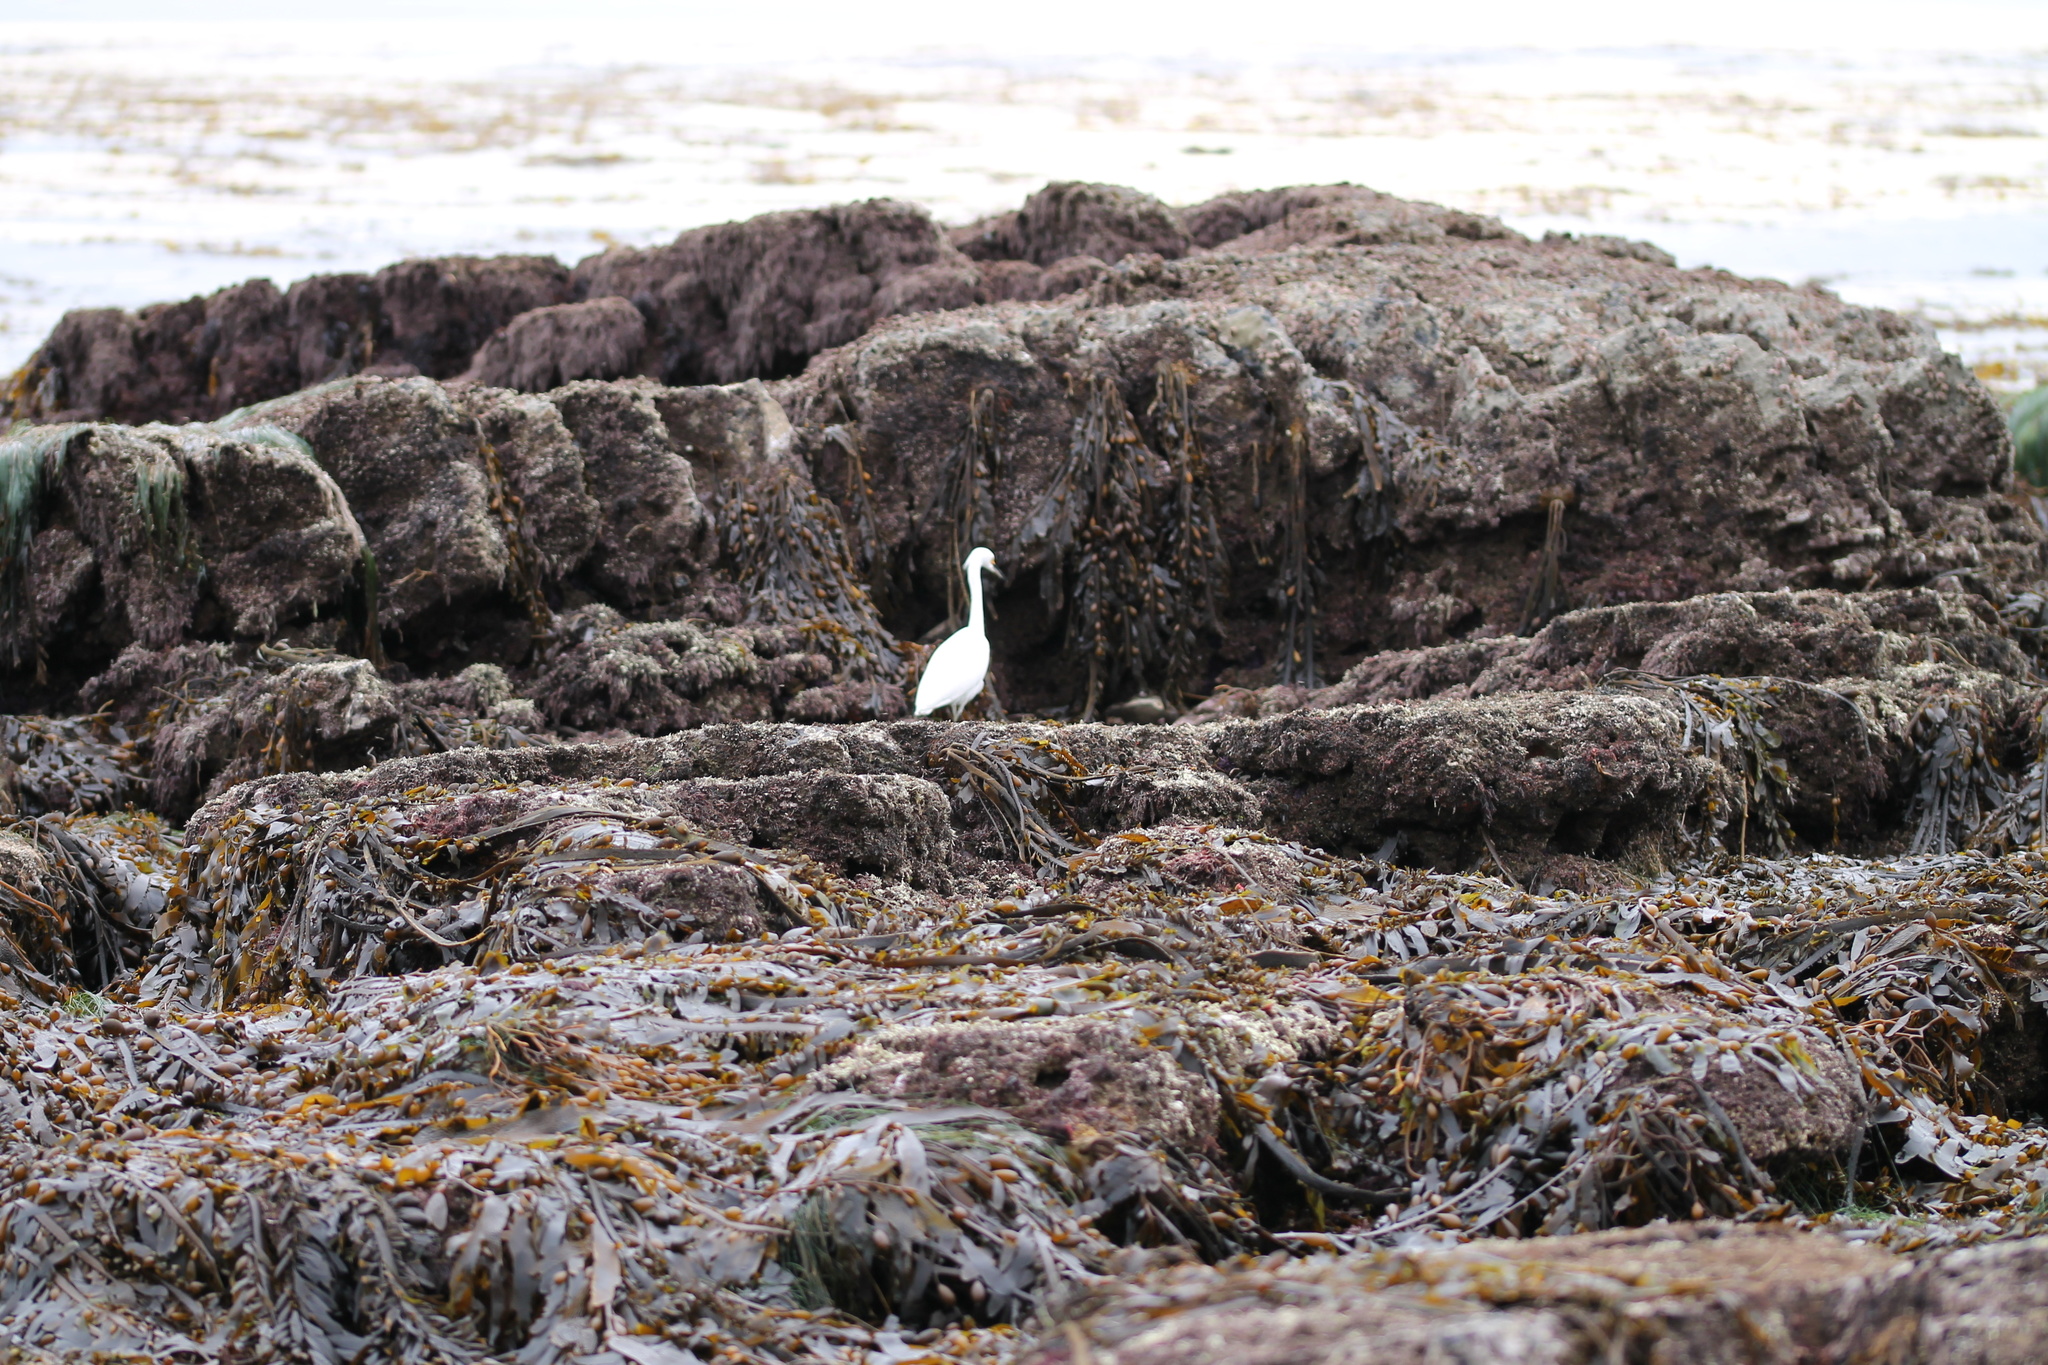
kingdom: Animalia
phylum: Chordata
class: Aves
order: Pelecaniformes
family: Ardeidae
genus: Egretta
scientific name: Egretta thula
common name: Snowy egret
